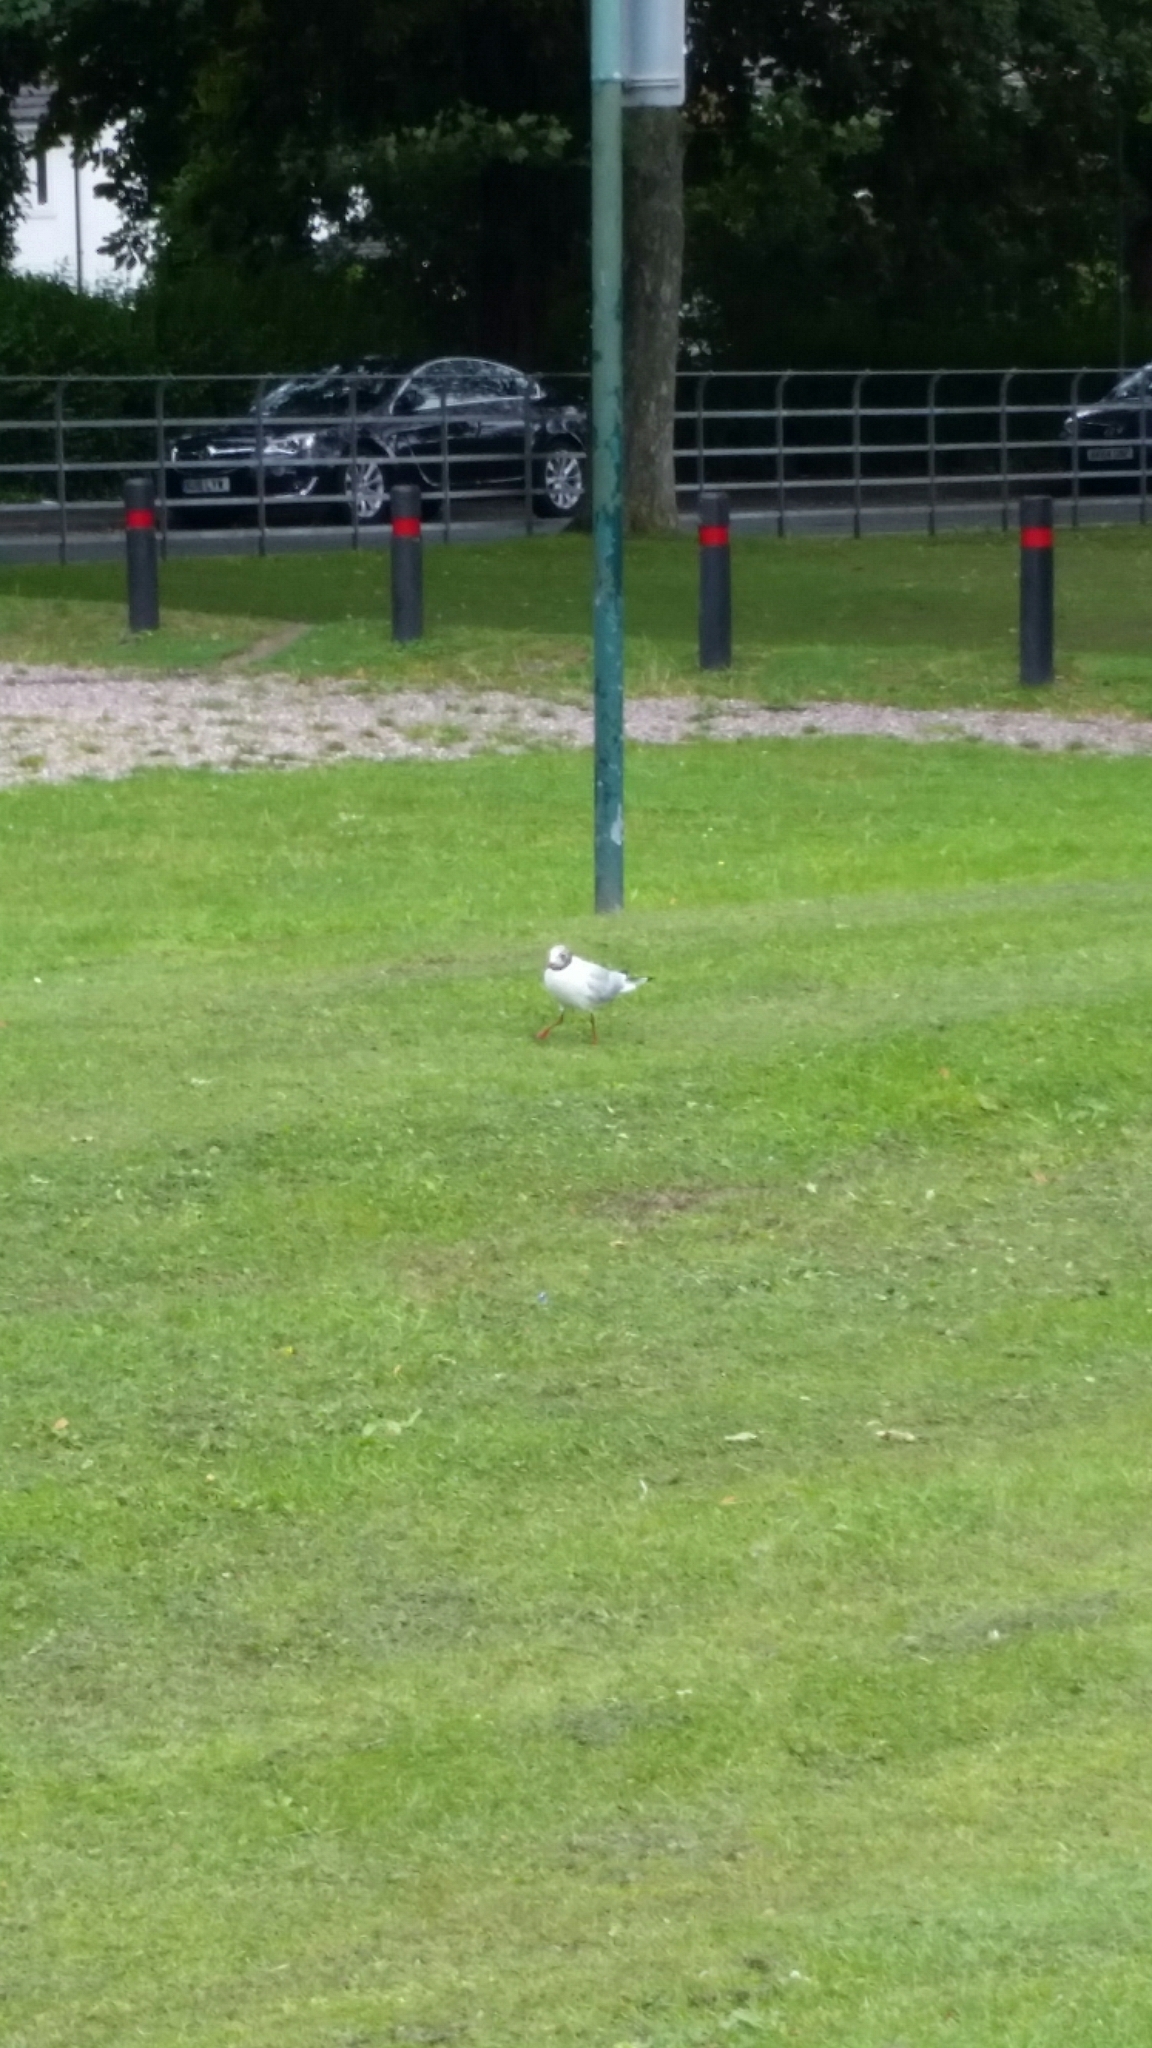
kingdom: Animalia
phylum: Chordata
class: Aves
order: Charadriiformes
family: Laridae
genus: Chroicocephalus
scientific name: Chroicocephalus ridibundus
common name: Black-headed gull
